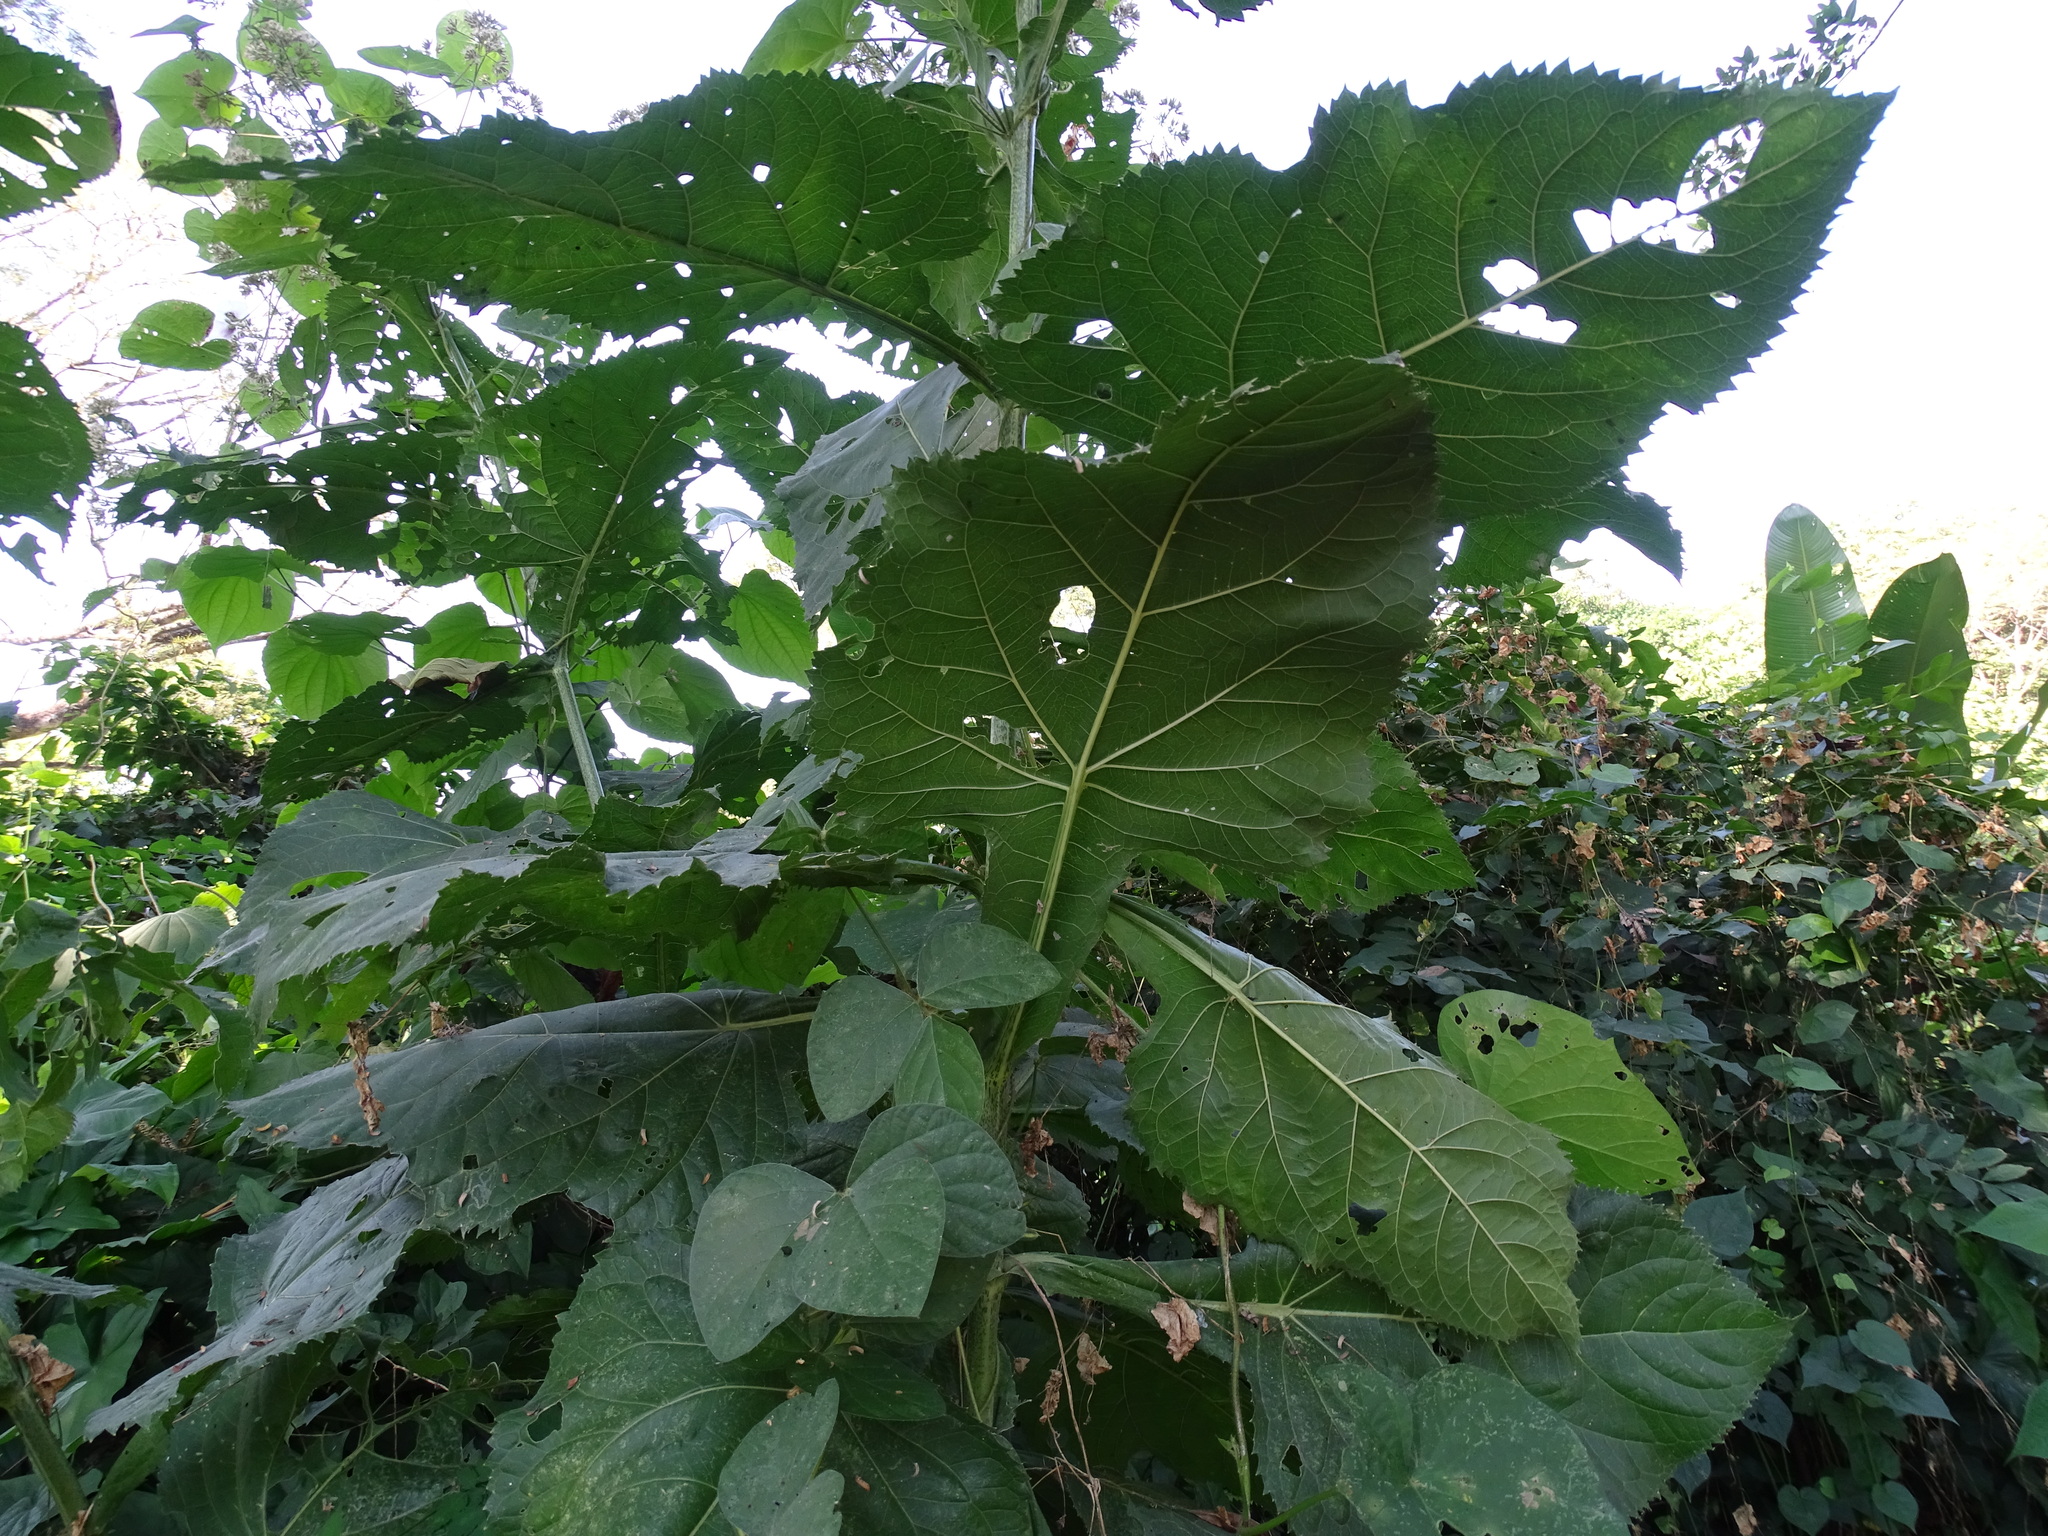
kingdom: Plantae
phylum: Tracheophyta
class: Magnoliopsida
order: Asterales
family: Asteraceae
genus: Critonia
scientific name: Critonia quadrangularis
